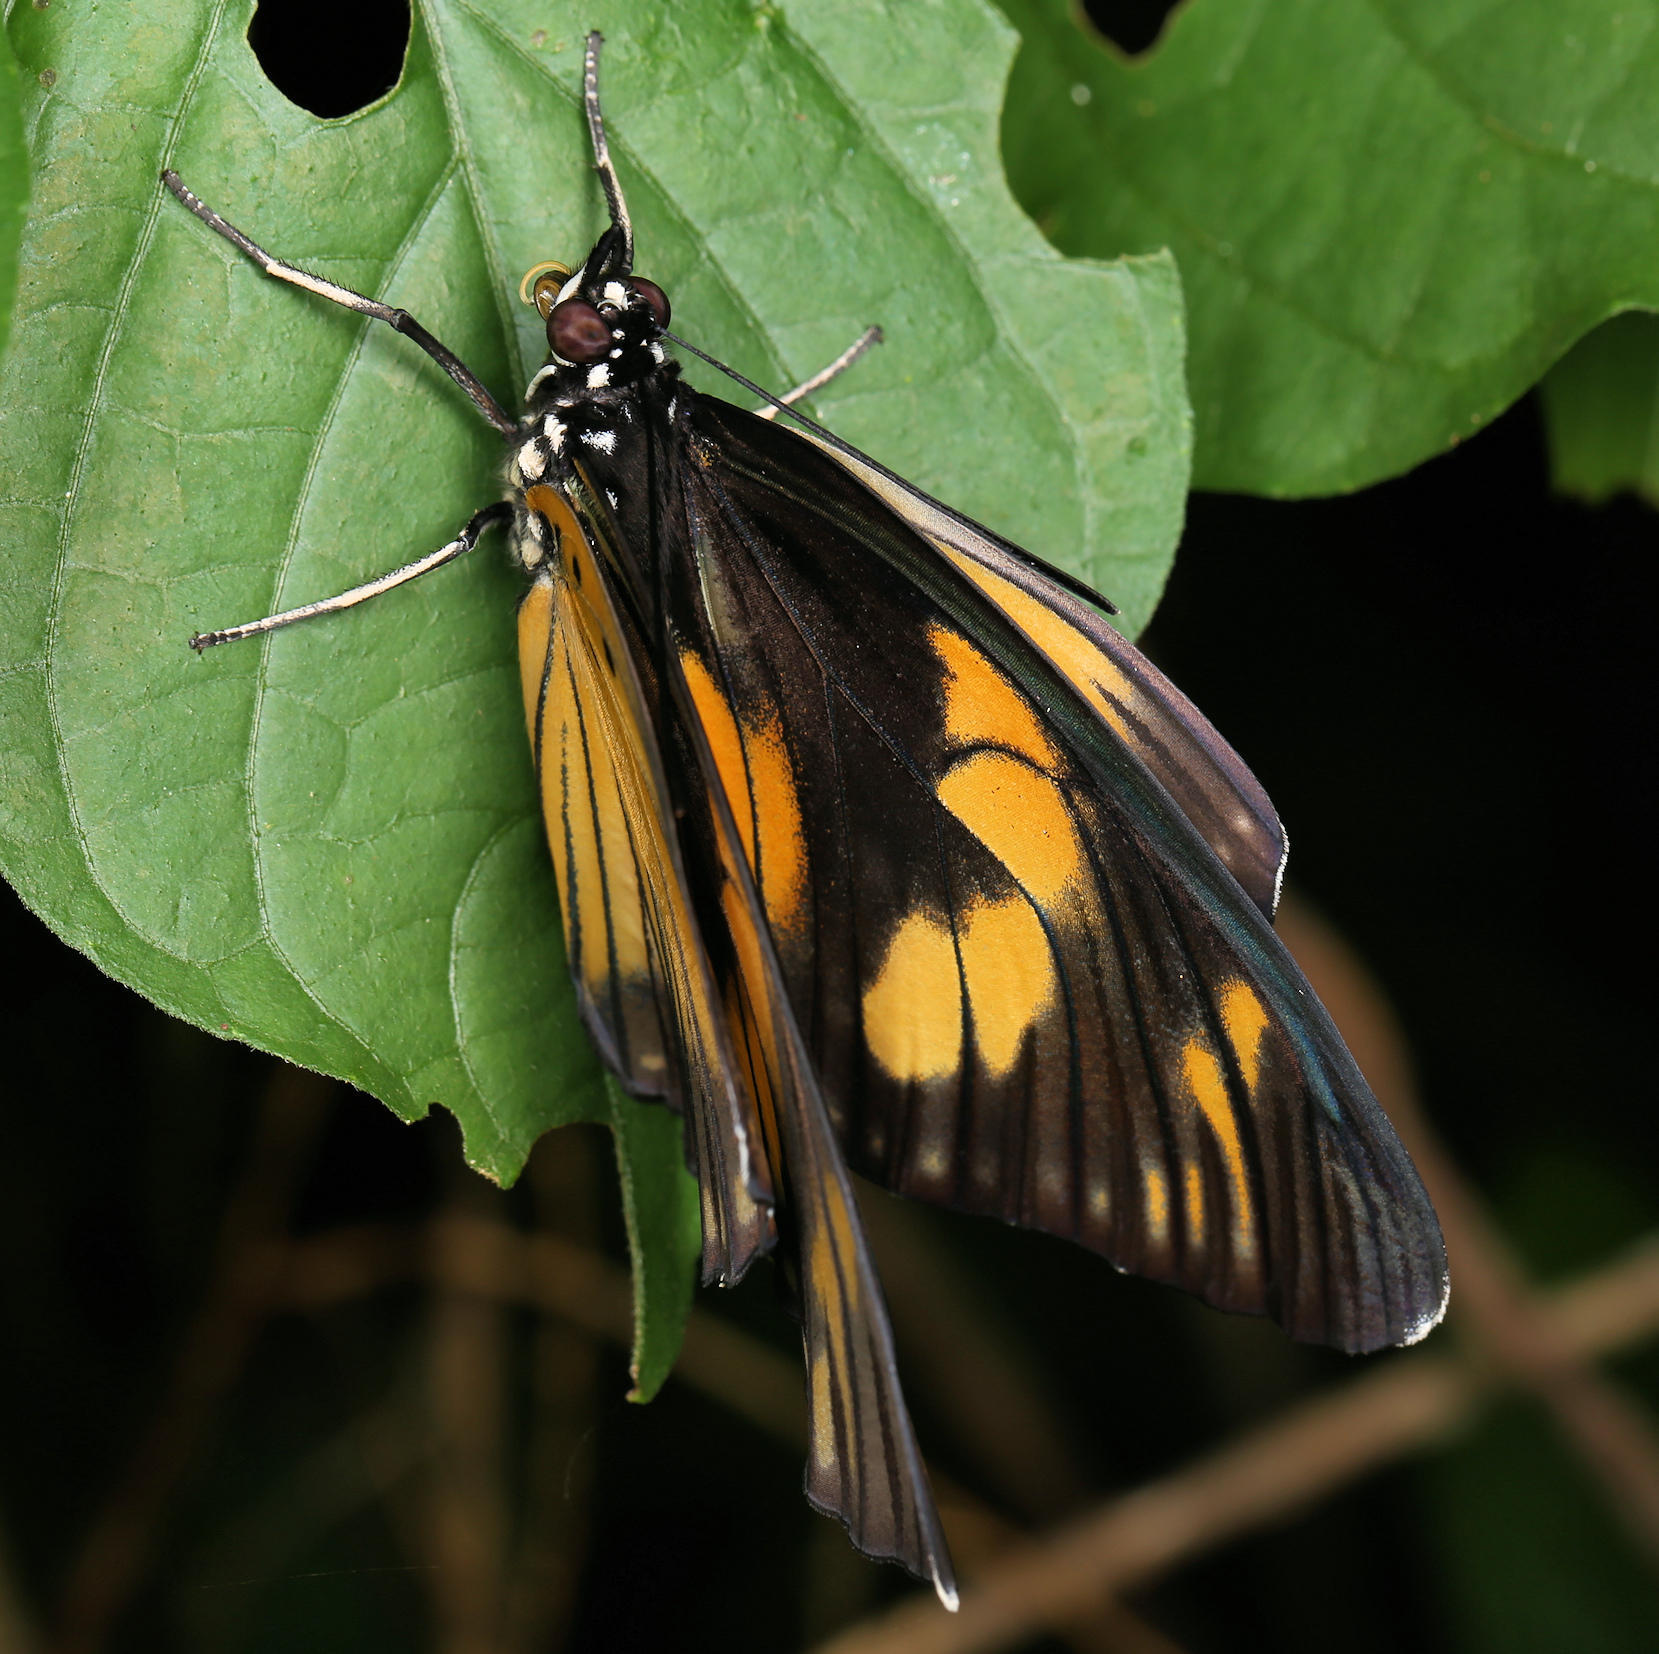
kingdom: Animalia
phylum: Arthropoda
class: Insecta
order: Lepidoptera
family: Nymphalidae
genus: Chloropoea
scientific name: Chloropoea lucretia
